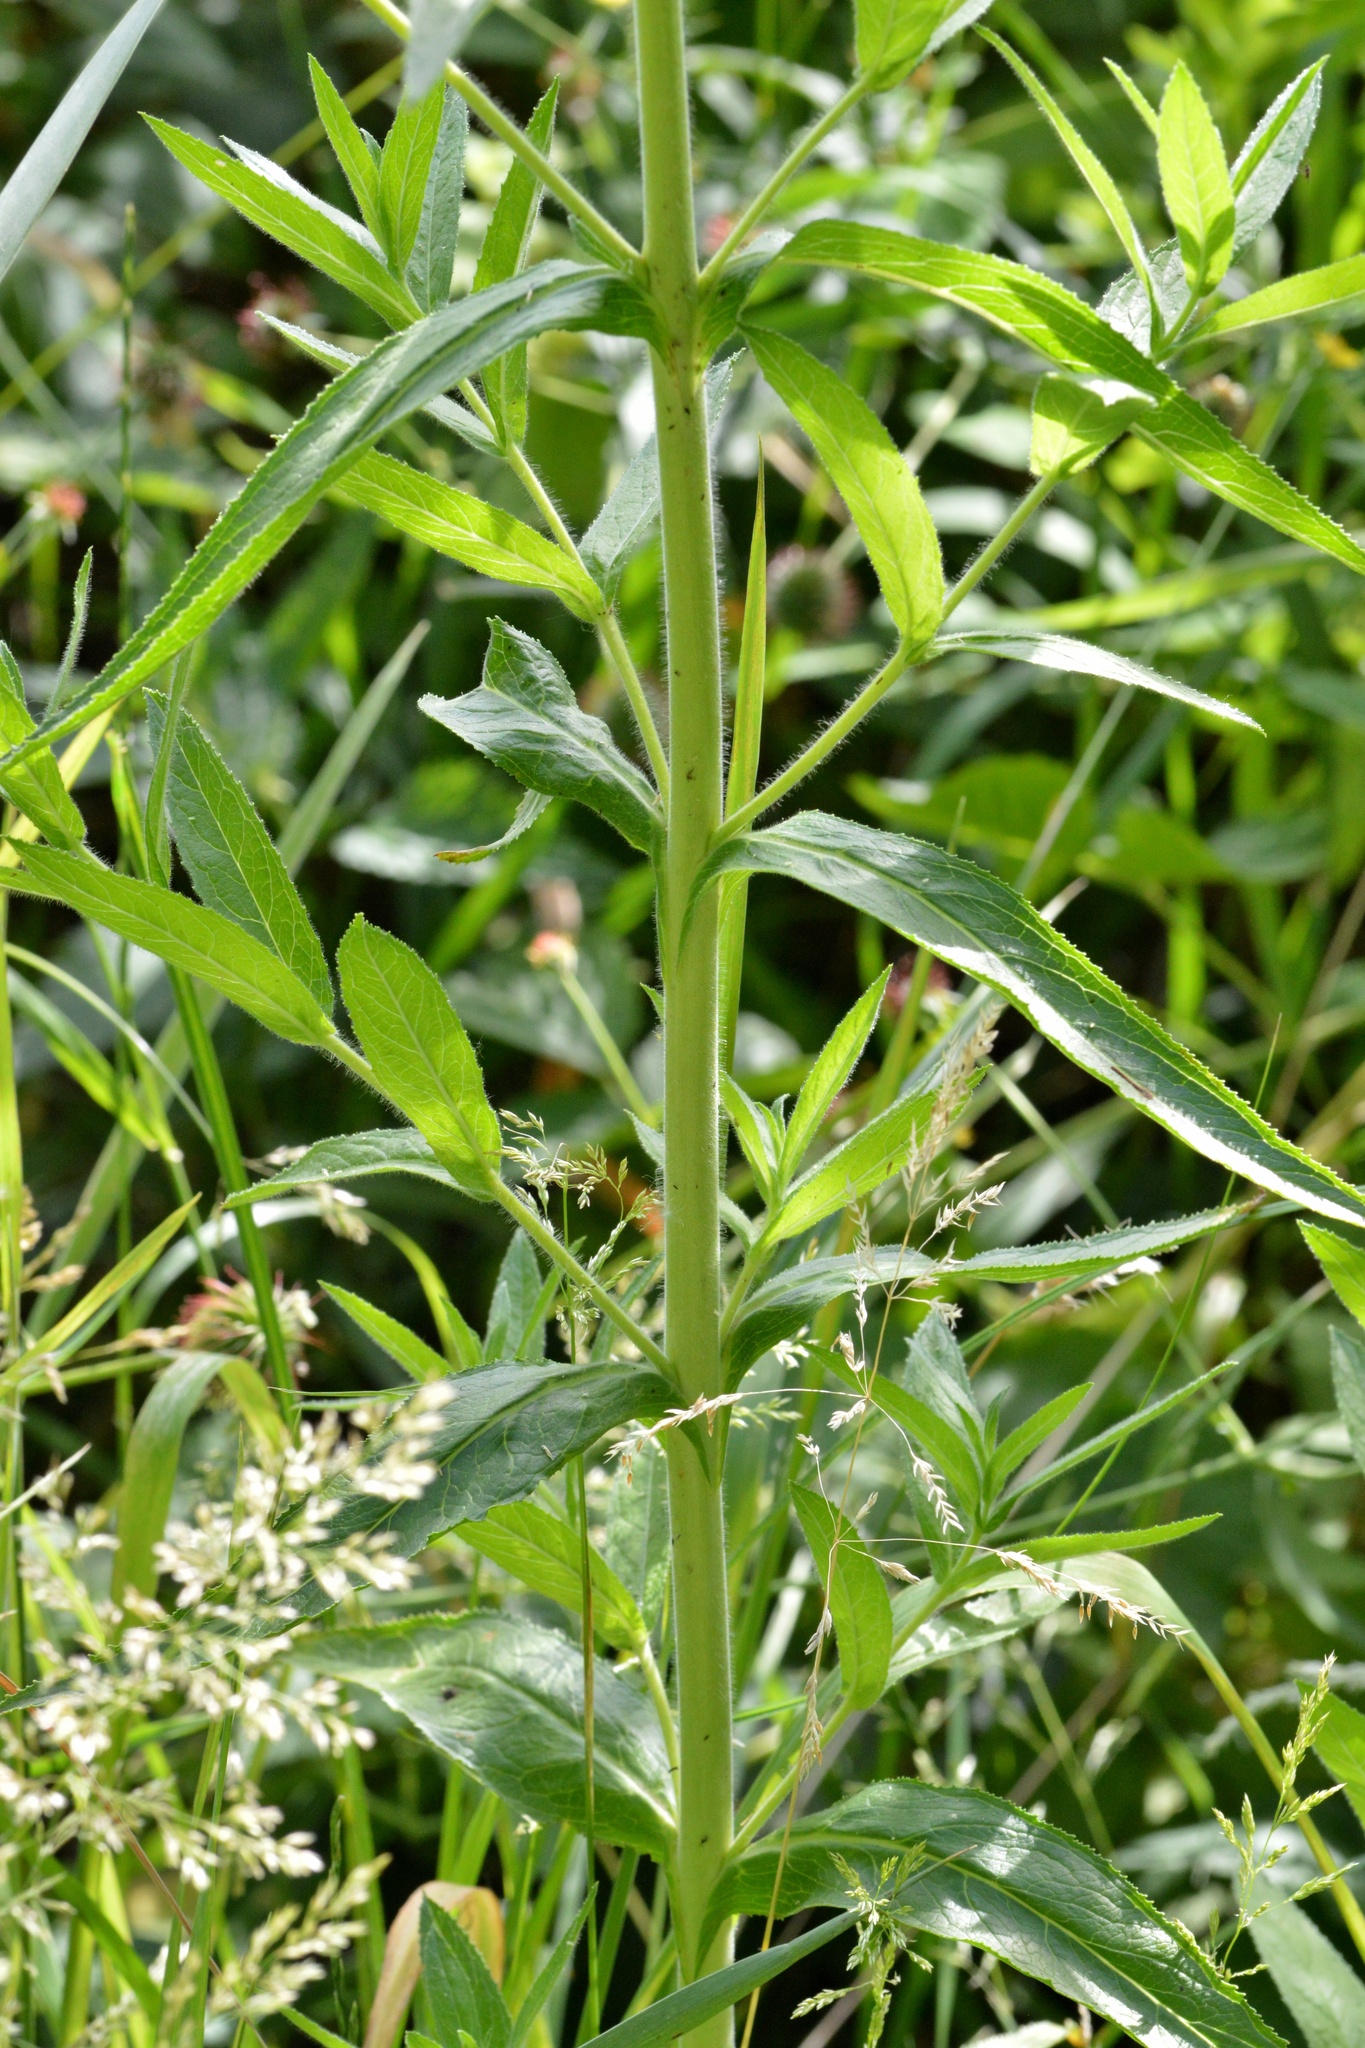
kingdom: Plantae
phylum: Tracheophyta
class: Magnoliopsida
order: Myrtales
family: Onagraceae
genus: Epilobium
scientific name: Epilobium hirsutum
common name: Great willowherb
